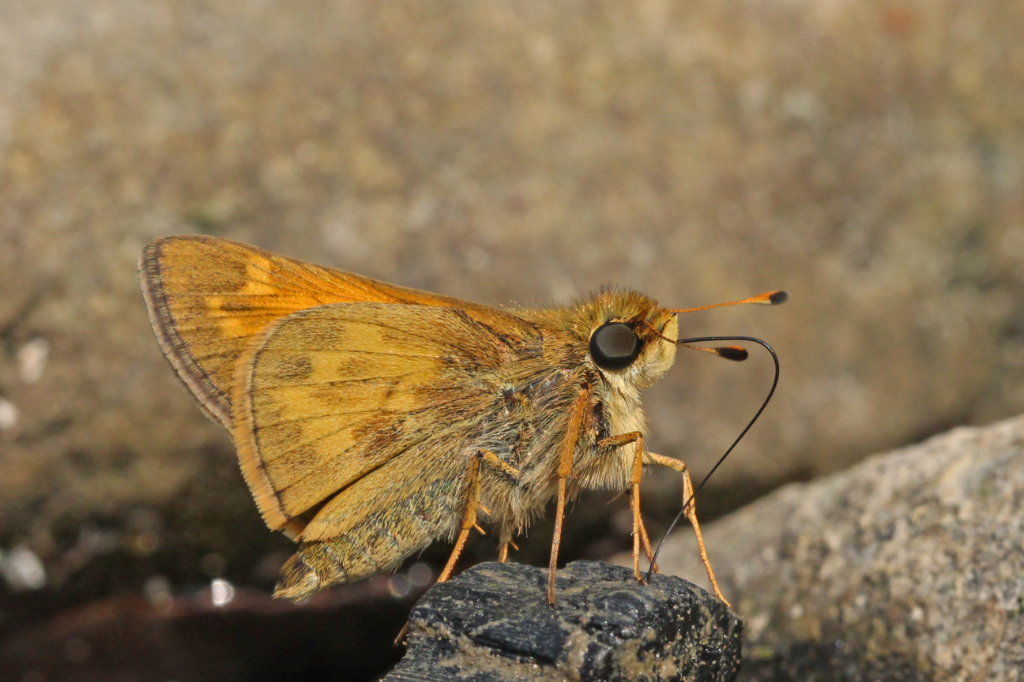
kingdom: Animalia
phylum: Arthropoda
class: Insecta
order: Lepidoptera
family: Hesperiidae
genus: Atalopedes
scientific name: Atalopedes
